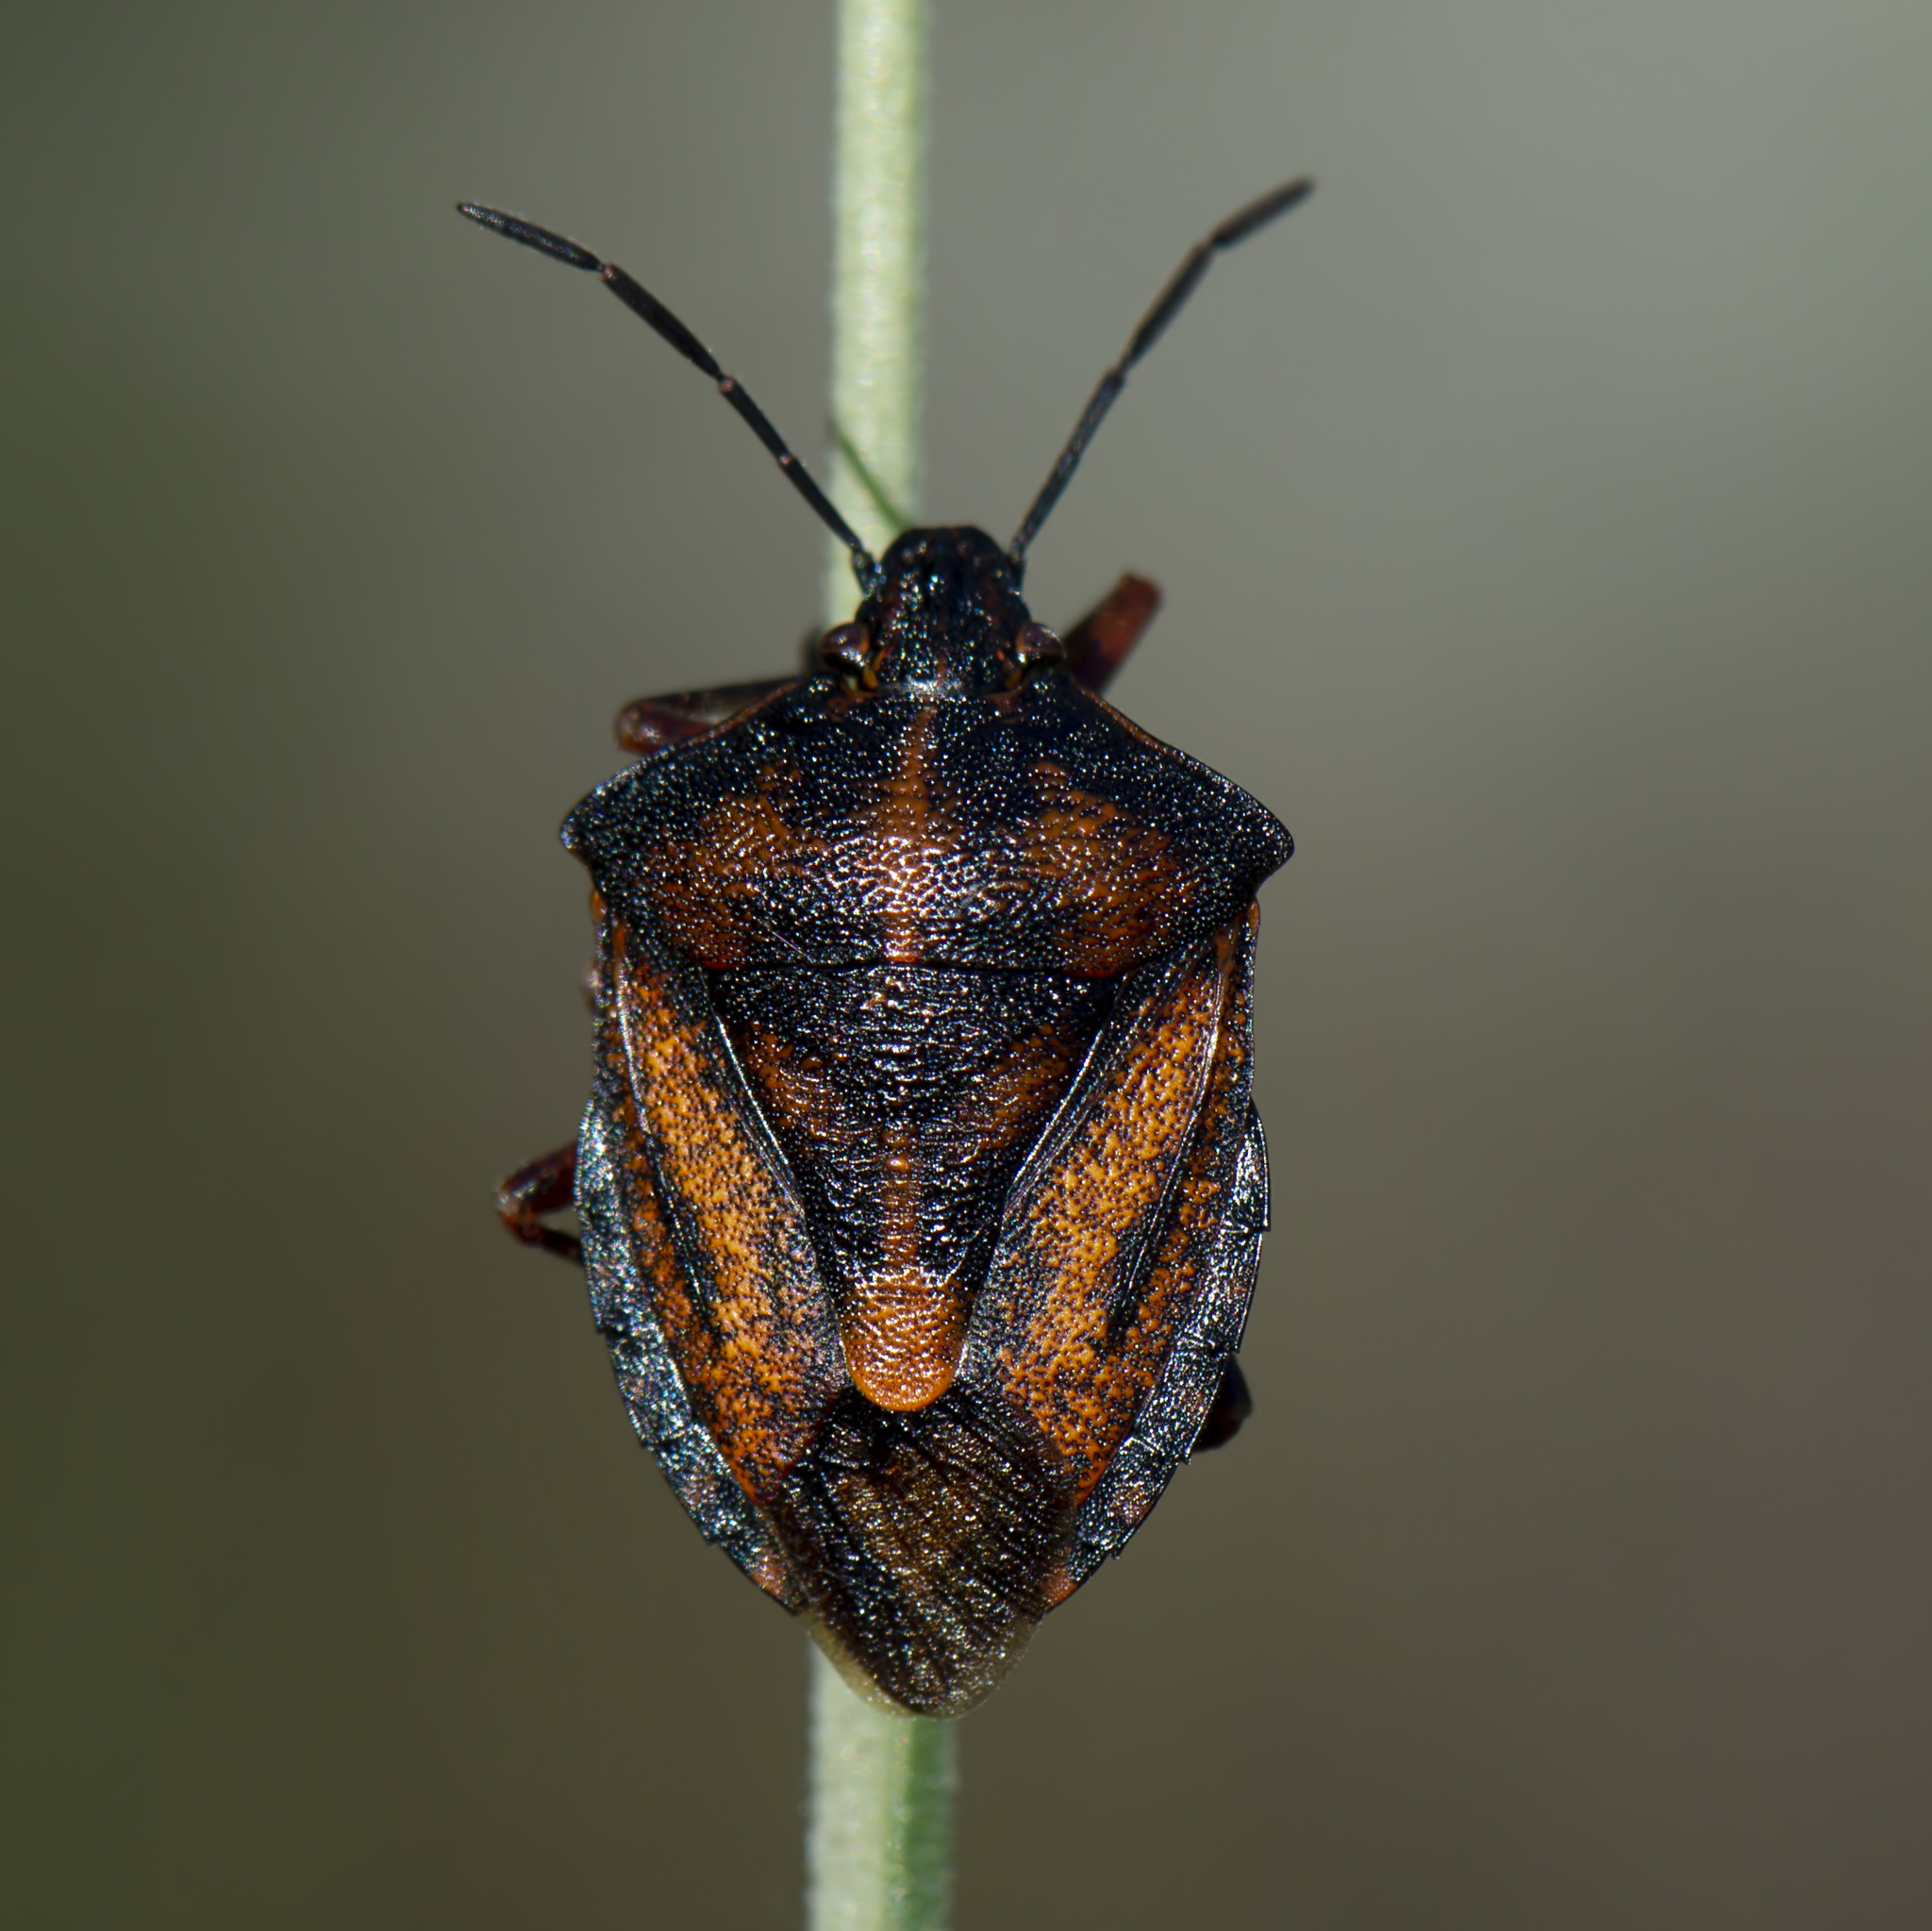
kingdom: Animalia
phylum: Arthropoda
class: Insecta
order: Hemiptera
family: Pentatomidae
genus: Carpocoris
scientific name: Carpocoris mediterraneus
